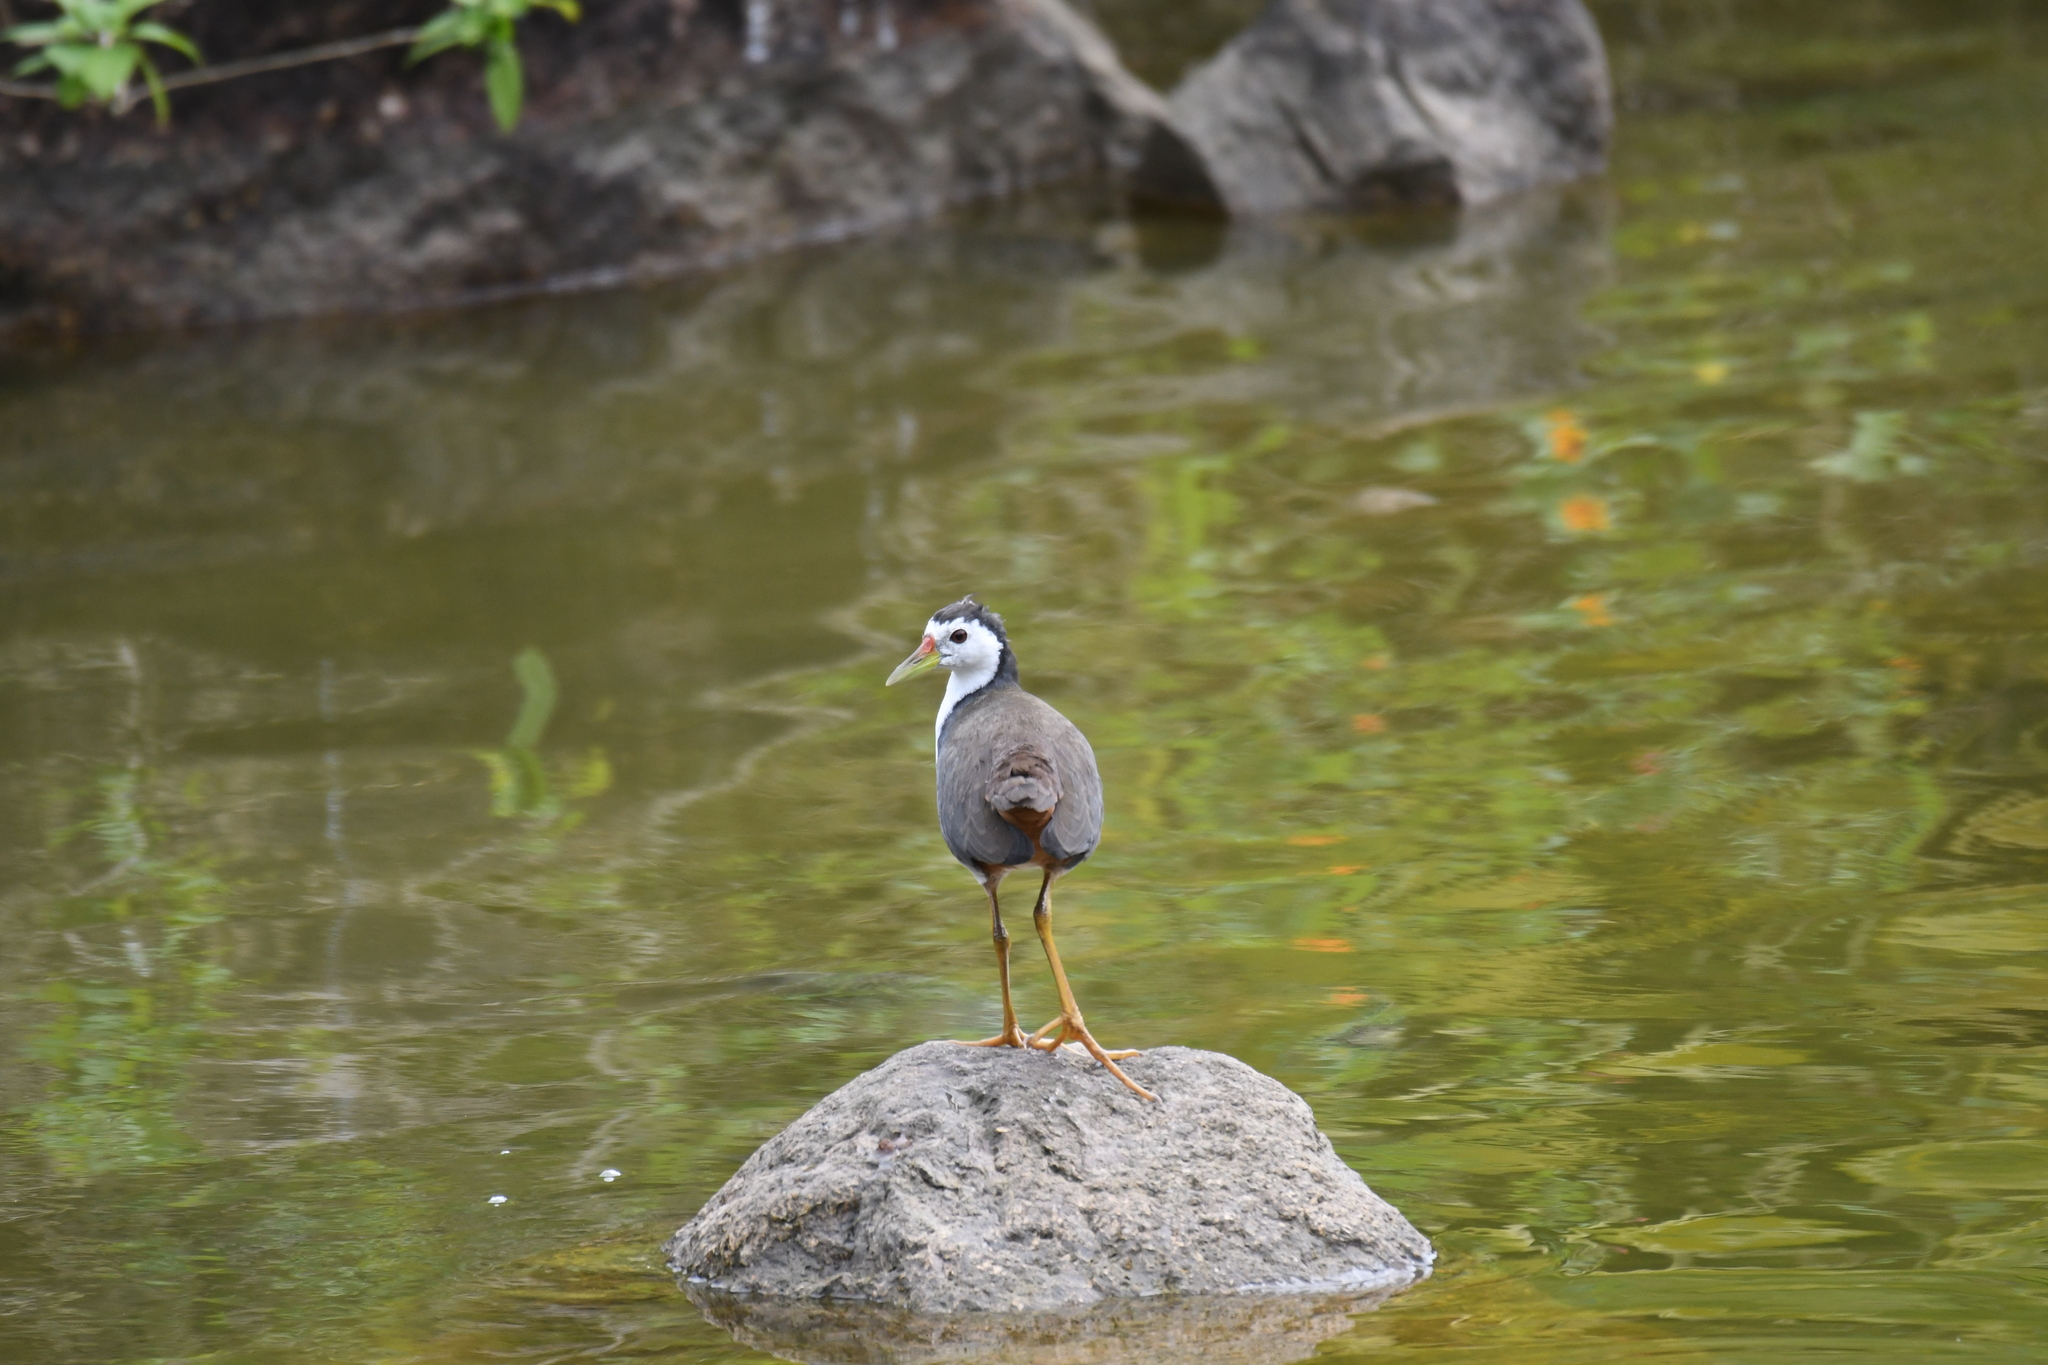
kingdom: Animalia
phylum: Chordata
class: Aves
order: Gruiformes
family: Rallidae
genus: Amaurornis
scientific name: Amaurornis phoenicurus
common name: White-breasted waterhen
